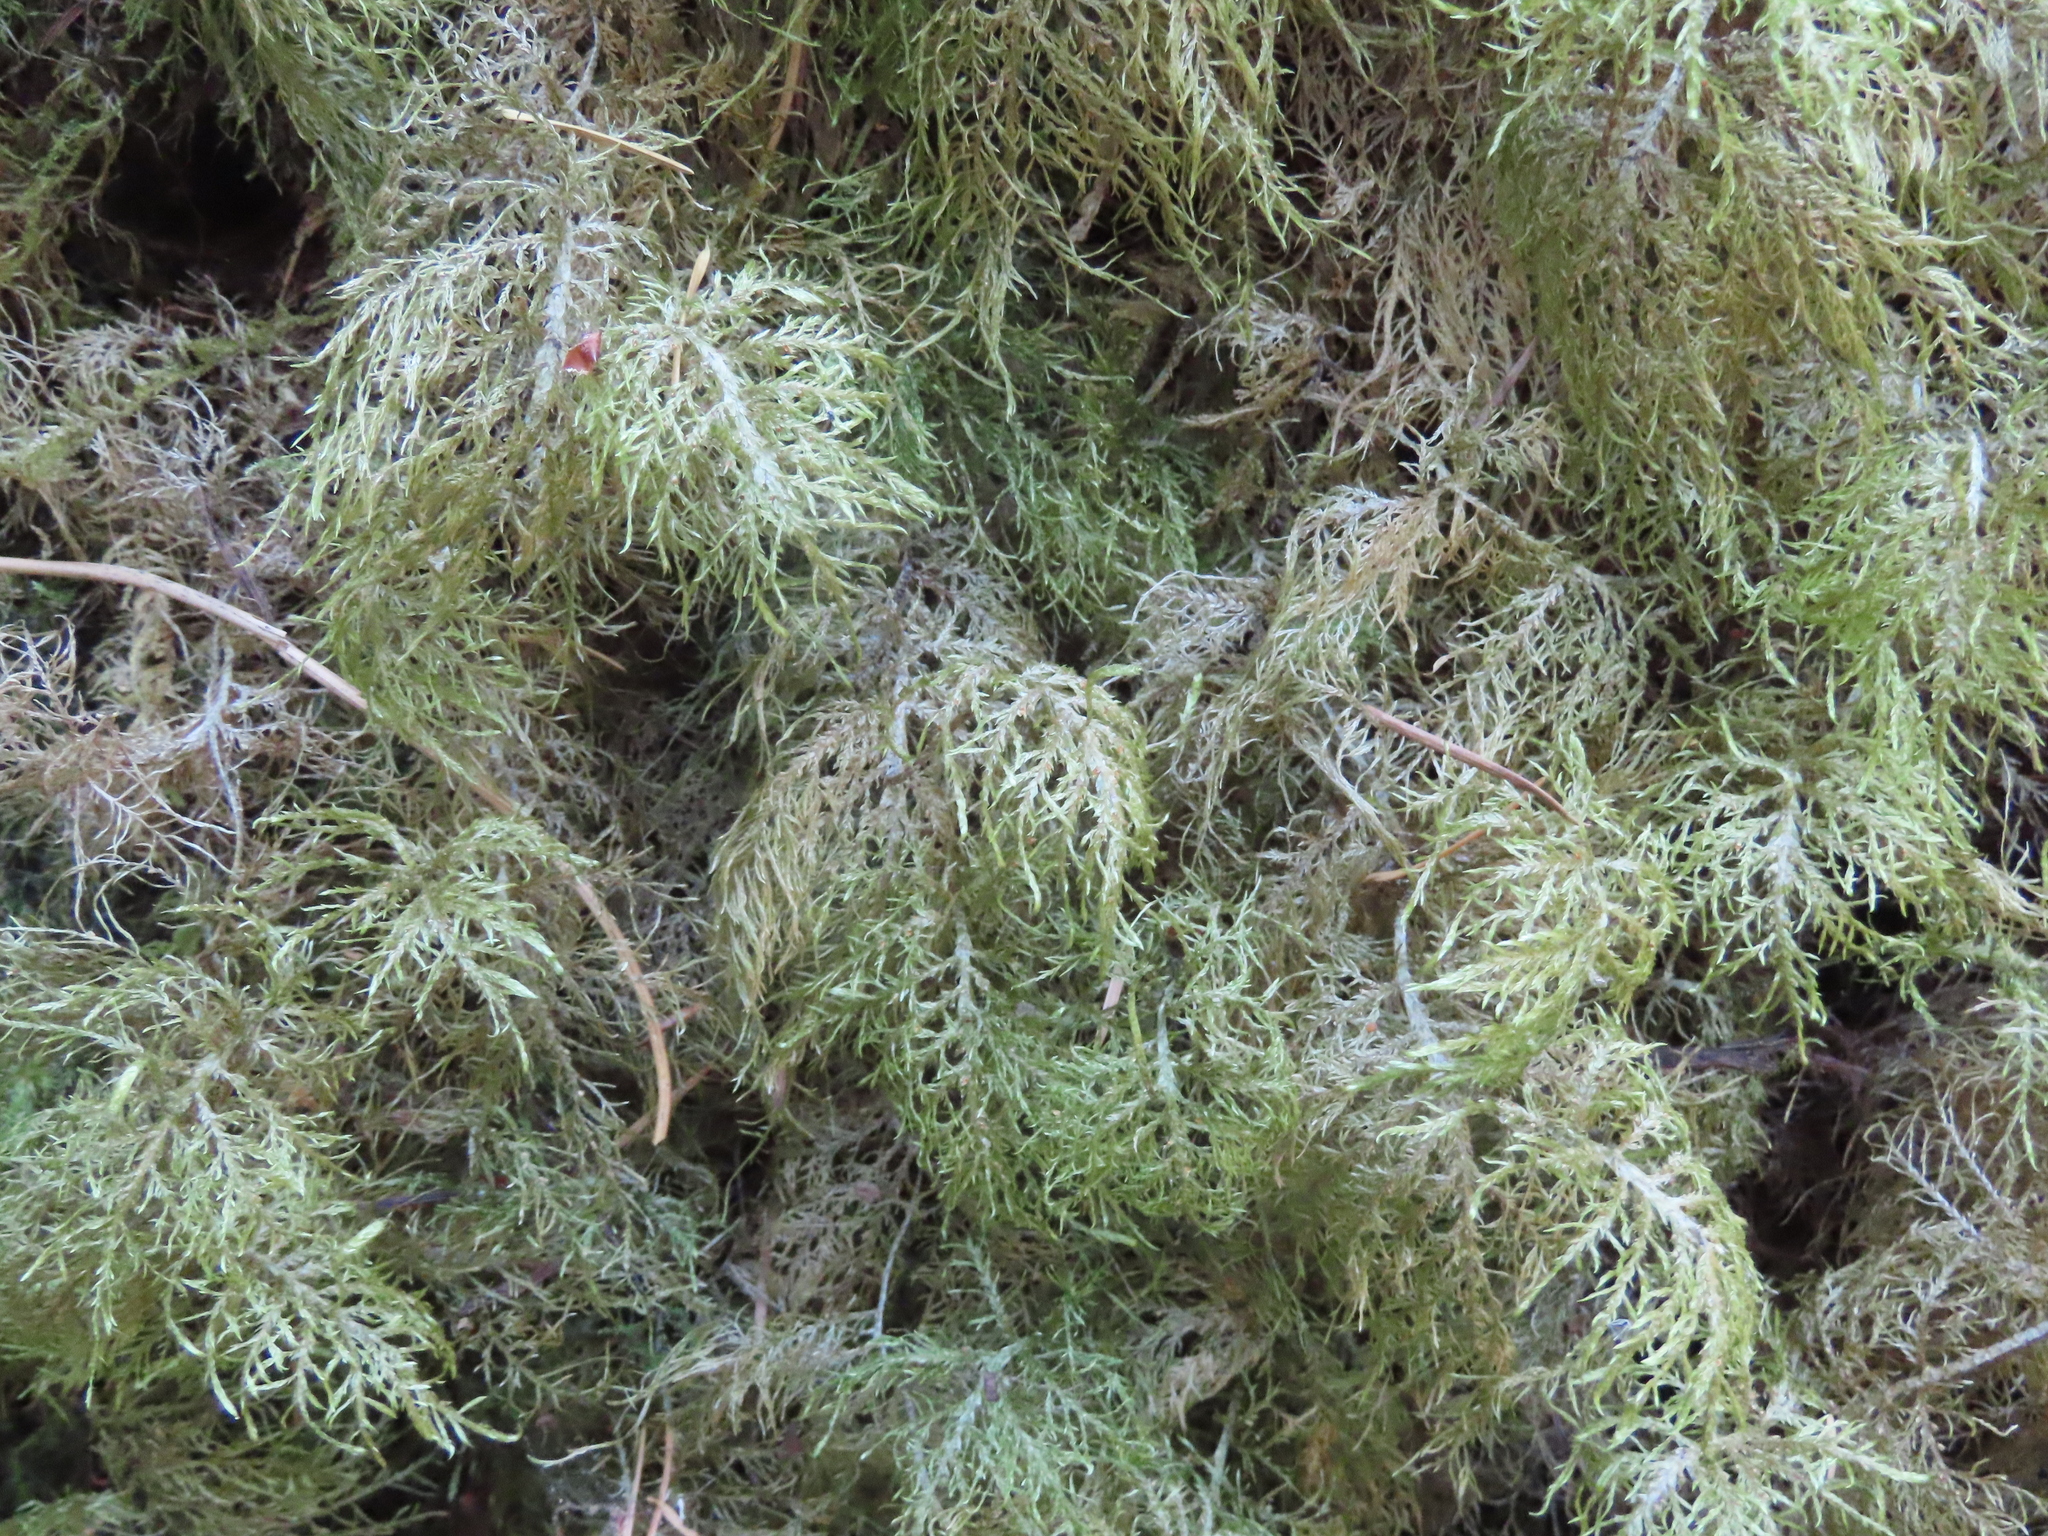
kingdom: Plantae
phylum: Bryophyta
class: Bryopsida
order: Hypnales
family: Hylocomiaceae
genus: Hylocomium
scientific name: Hylocomium splendens
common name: Stairstep moss
